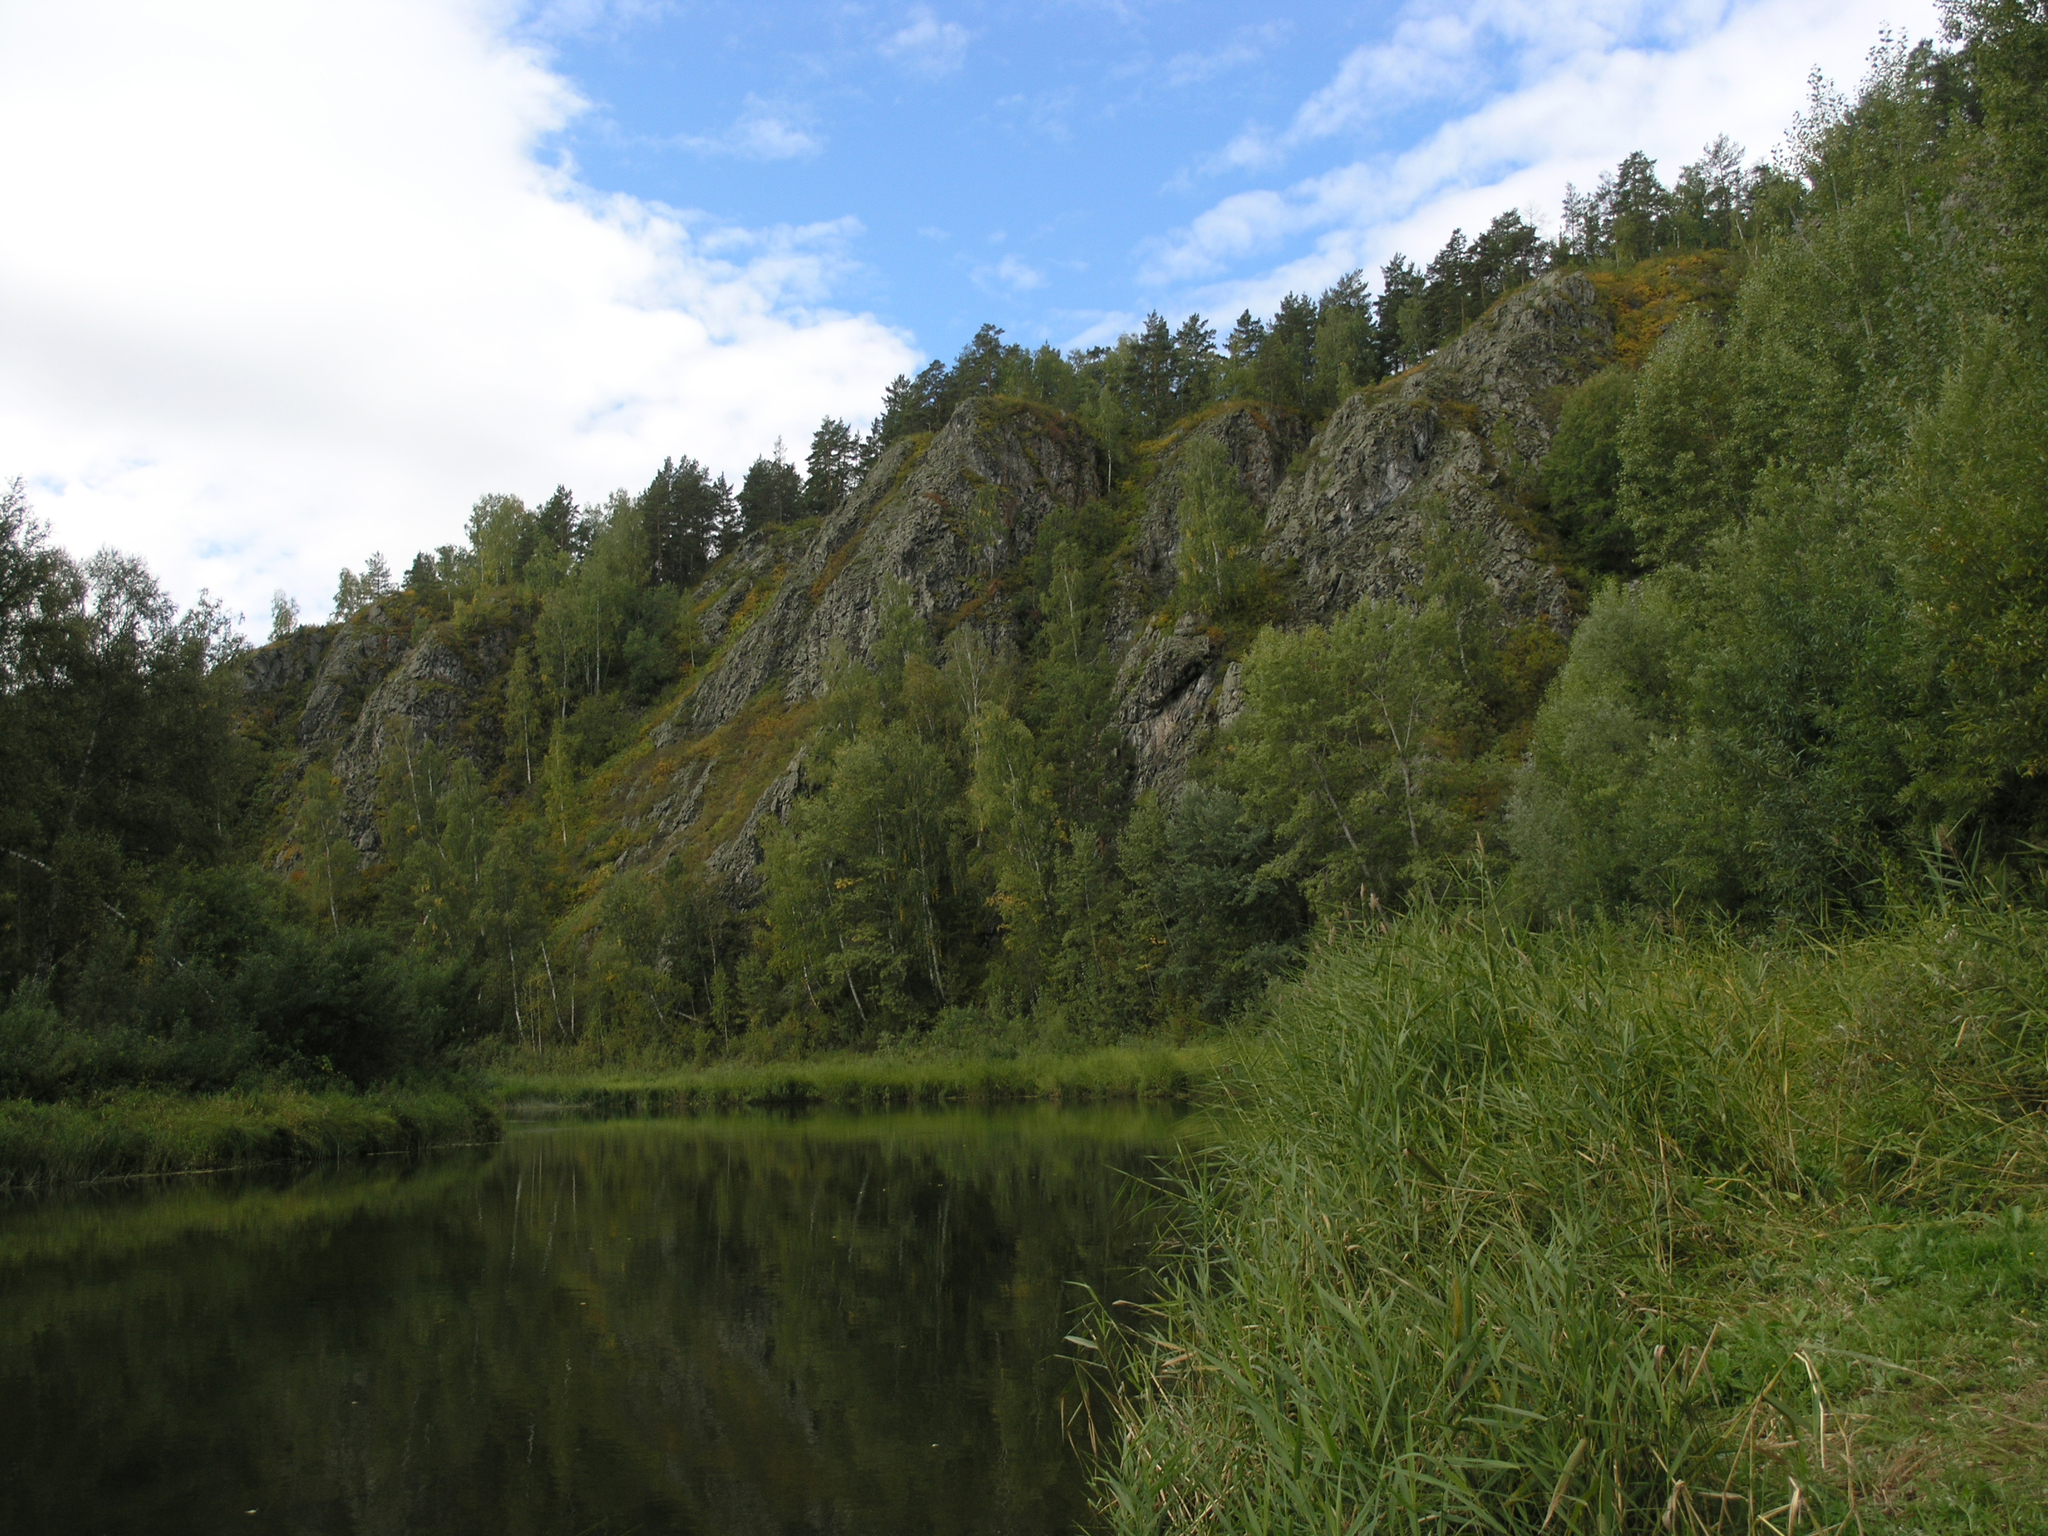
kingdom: Plantae
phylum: Tracheophyta
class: Liliopsida
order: Poales
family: Poaceae
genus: Phragmites
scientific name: Phragmites australis
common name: Common reed
